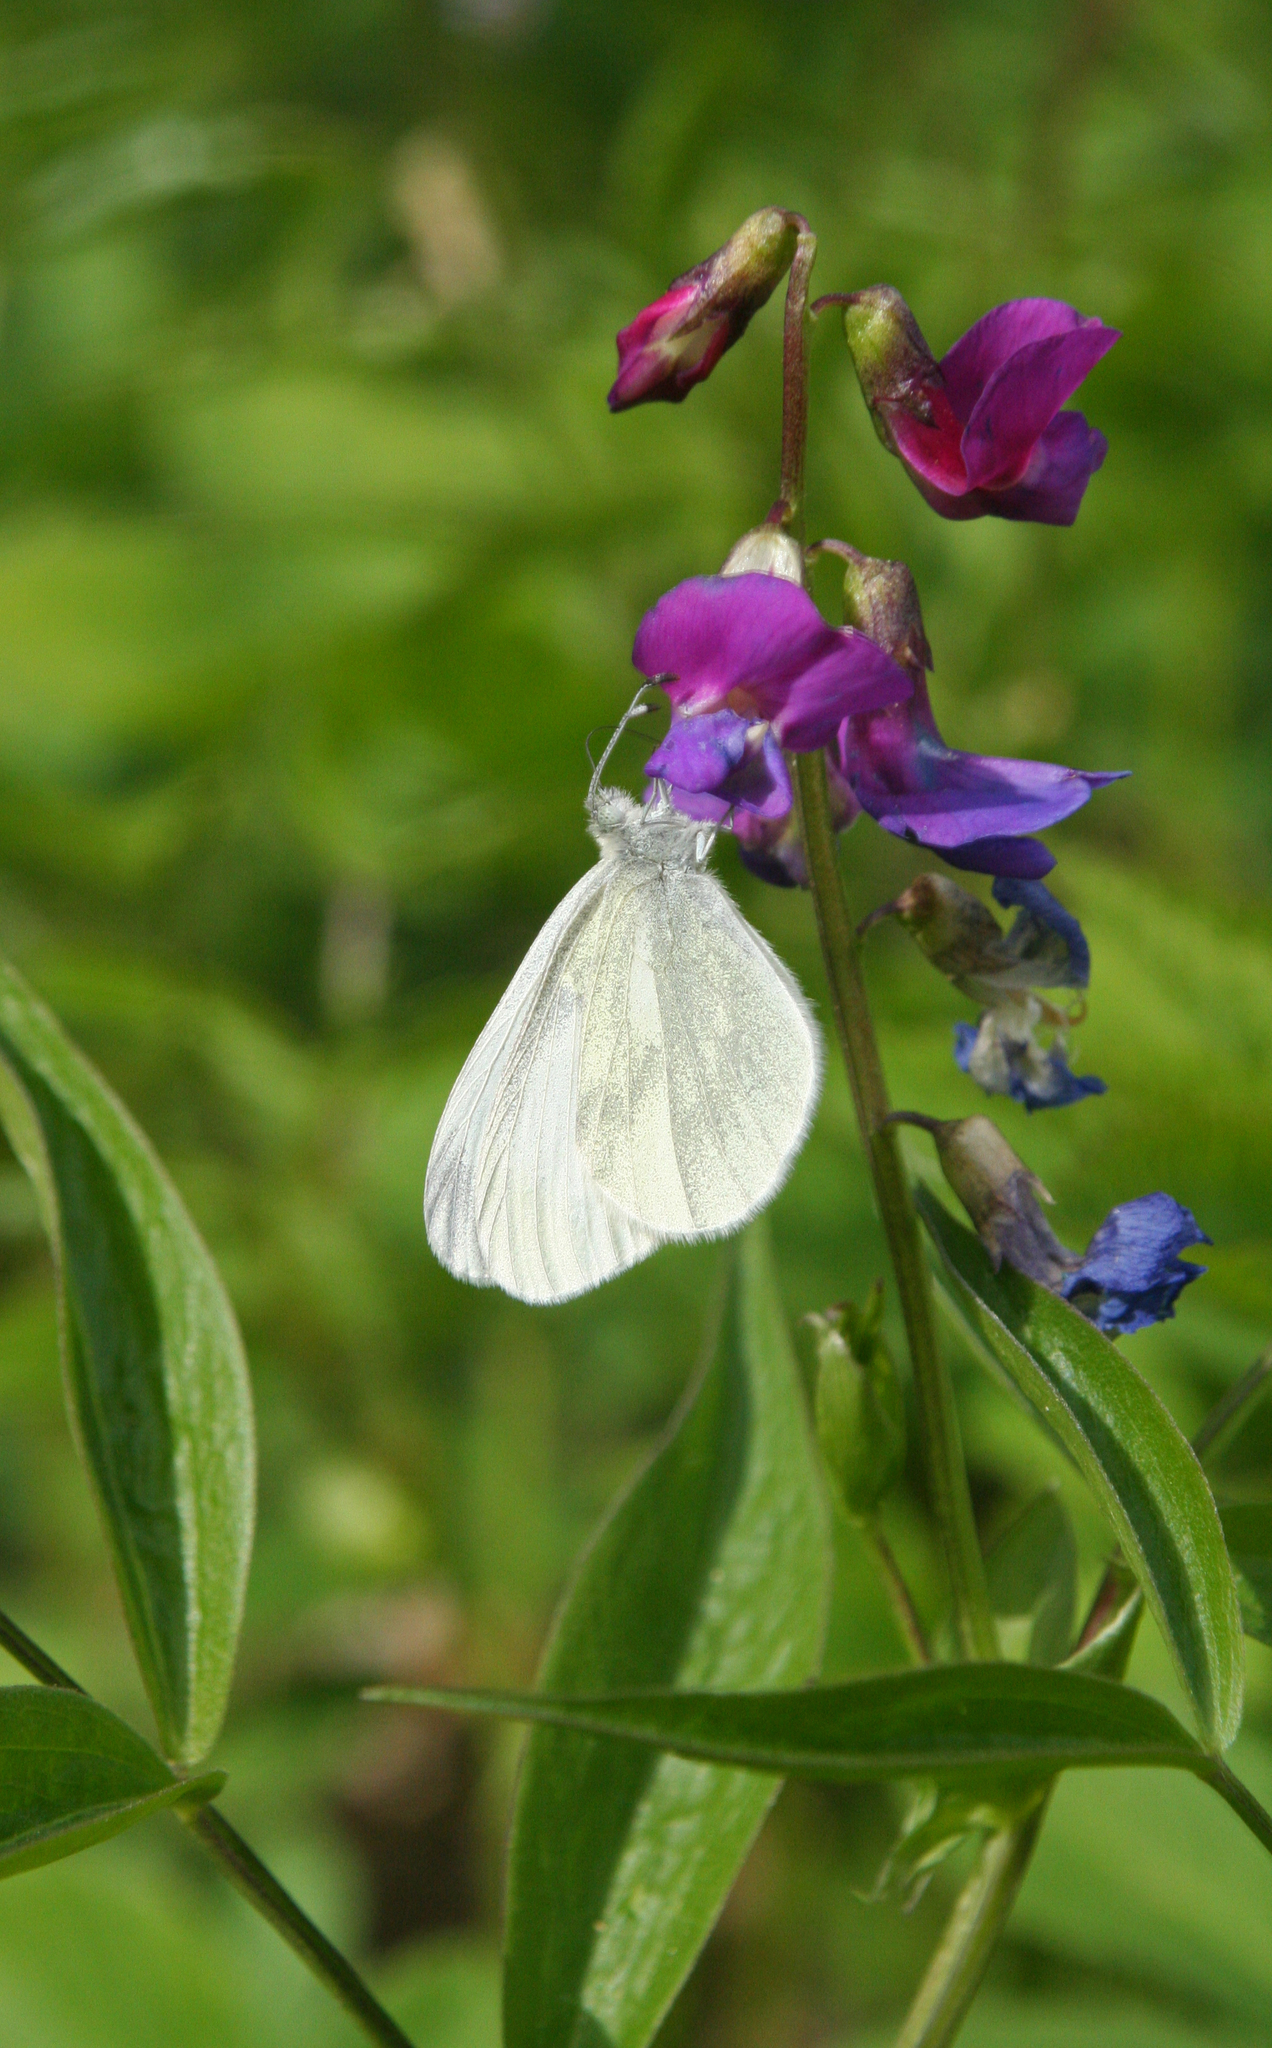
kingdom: Animalia
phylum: Arthropoda
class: Insecta
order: Lepidoptera
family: Pieridae
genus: Leptidea
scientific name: Leptidea sinapis
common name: Wood white
